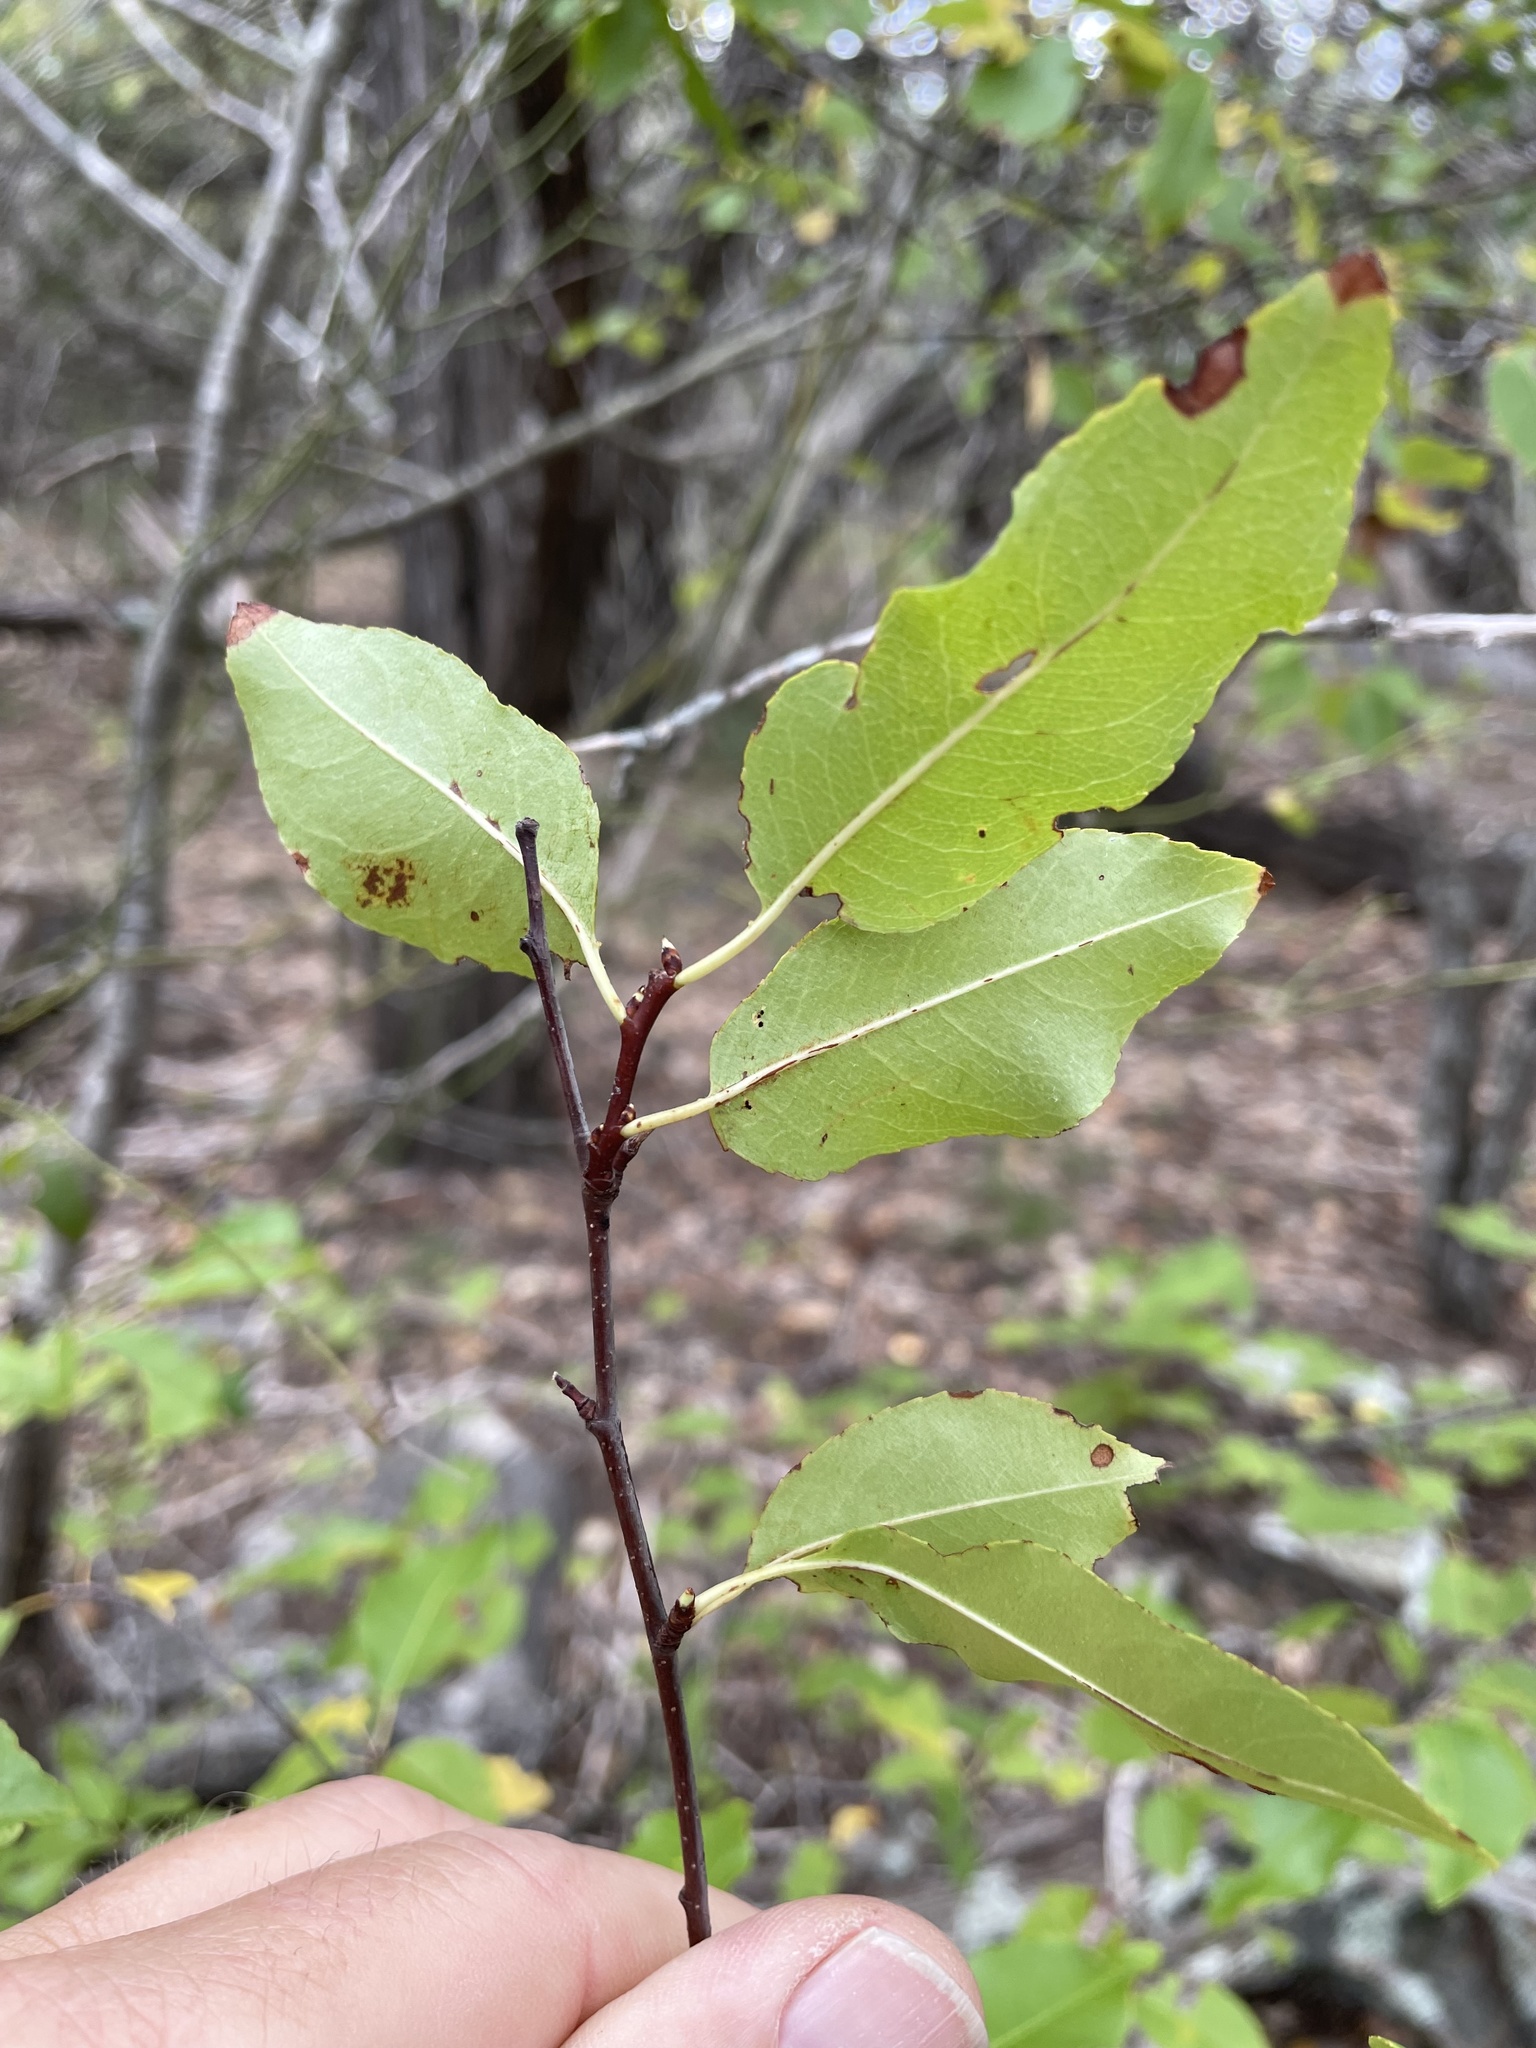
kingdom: Plantae
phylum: Tracheophyta
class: Magnoliopsida
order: Rosales
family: Rosaceae
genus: Prunus
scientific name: Prunus serotina
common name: Black cherry
